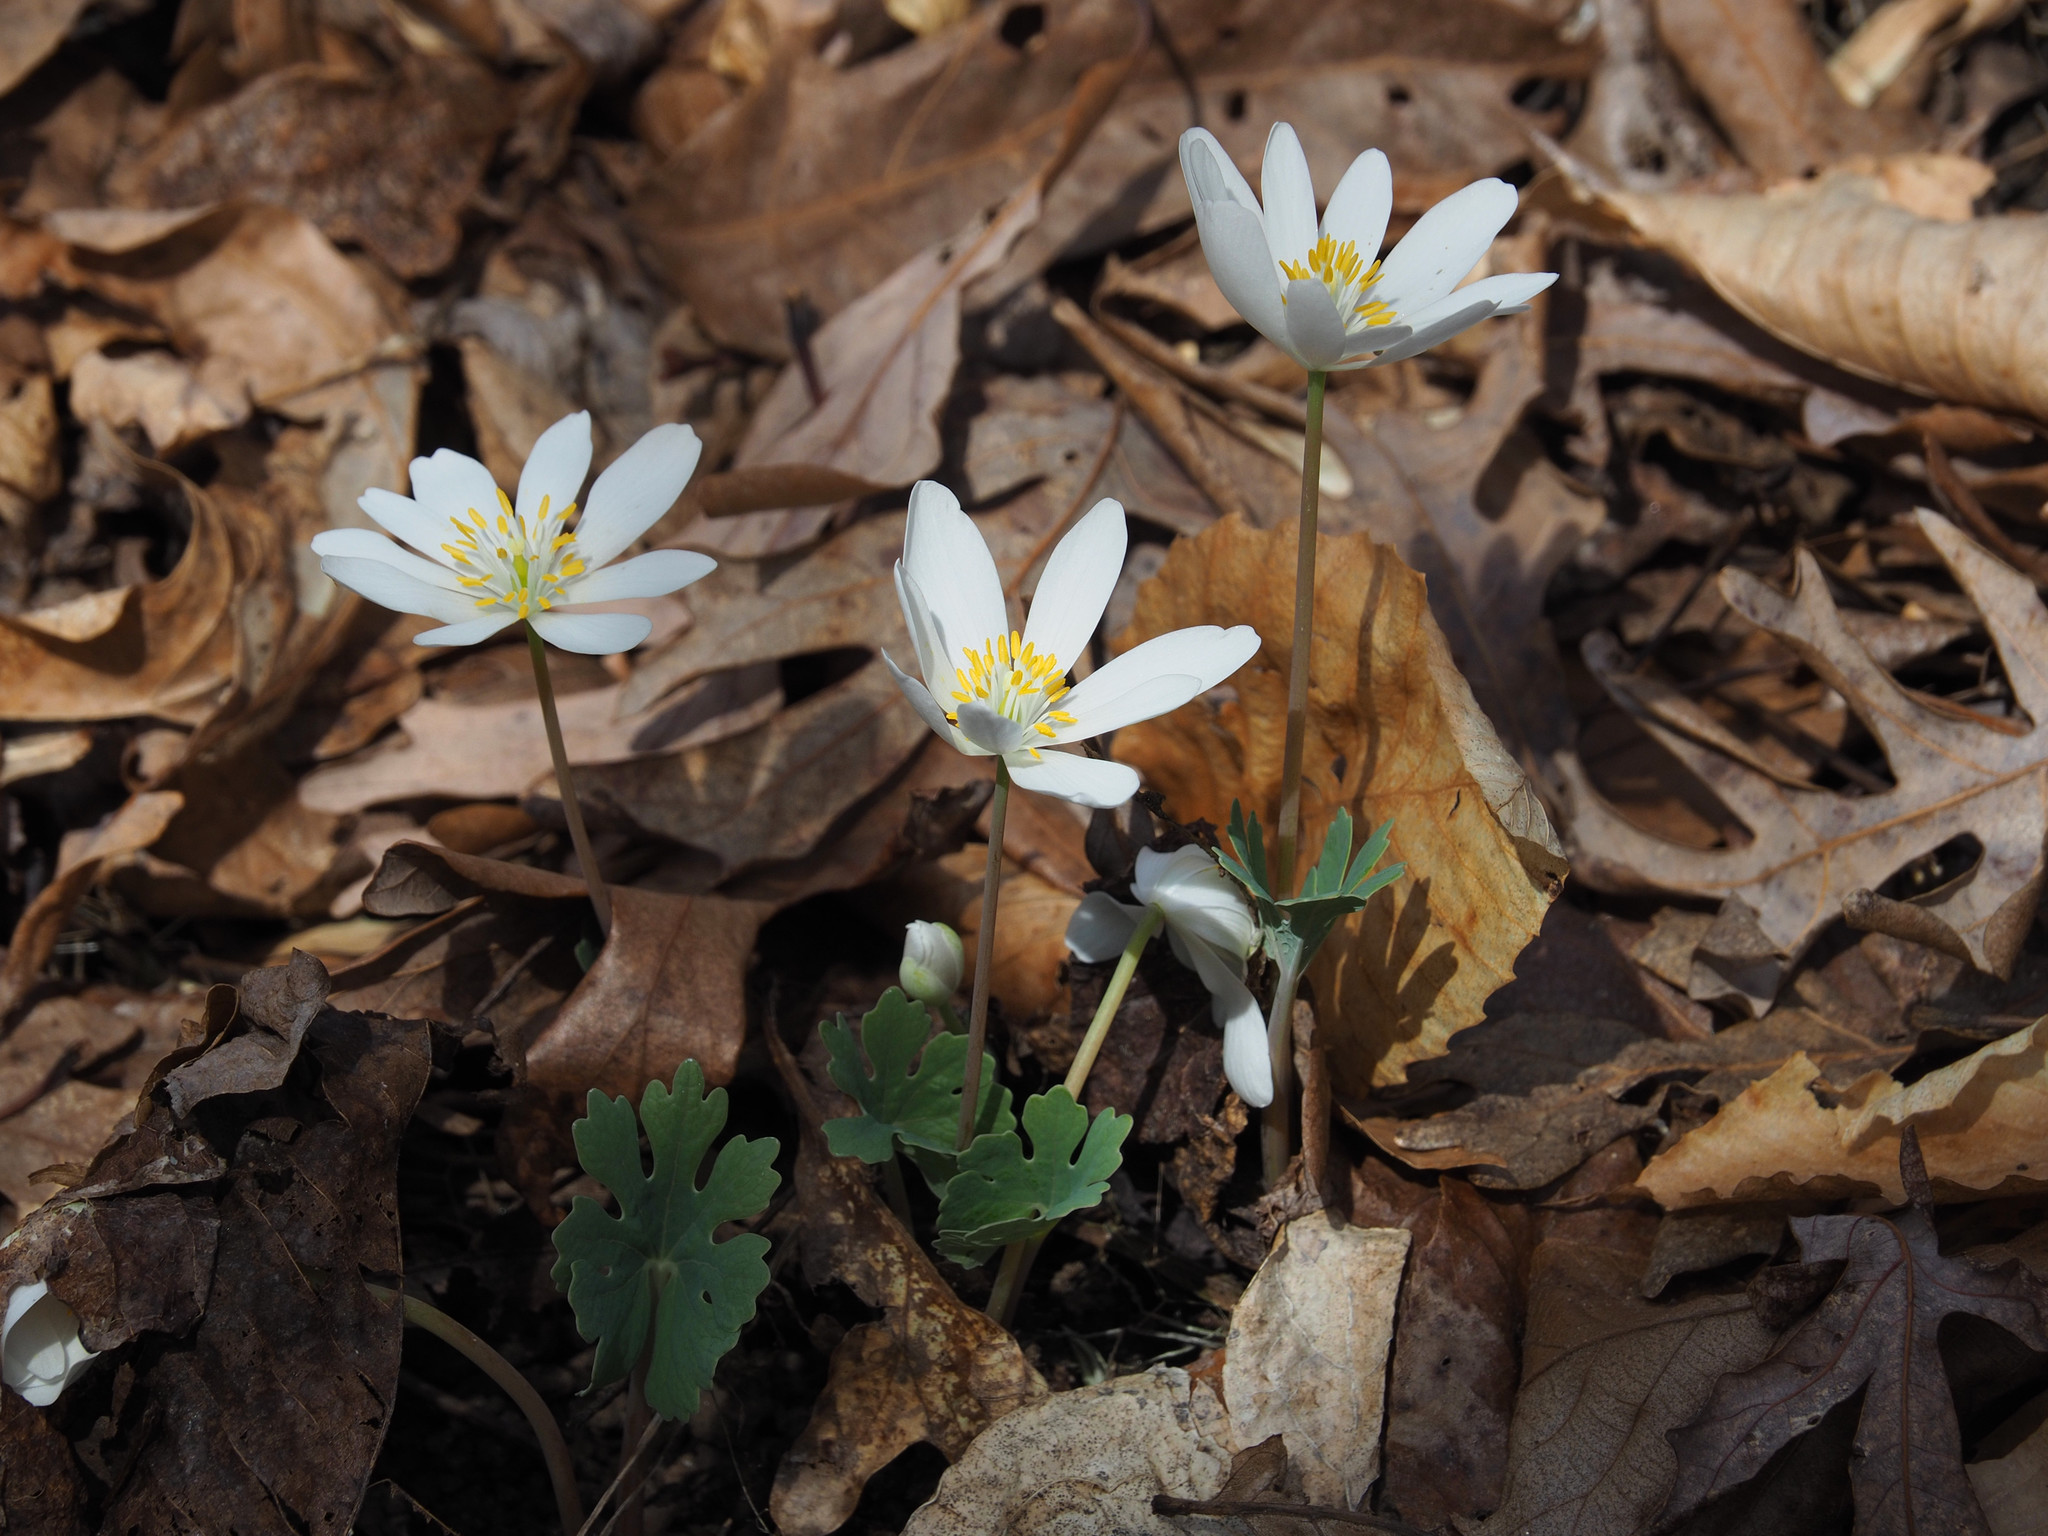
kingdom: Plantae
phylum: Tracheophyta
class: Magnoliopsida
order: Ranunculales
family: Papaveraceae
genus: Sanguinaria
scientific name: Sanguinaria canadensis
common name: Bloodroot
